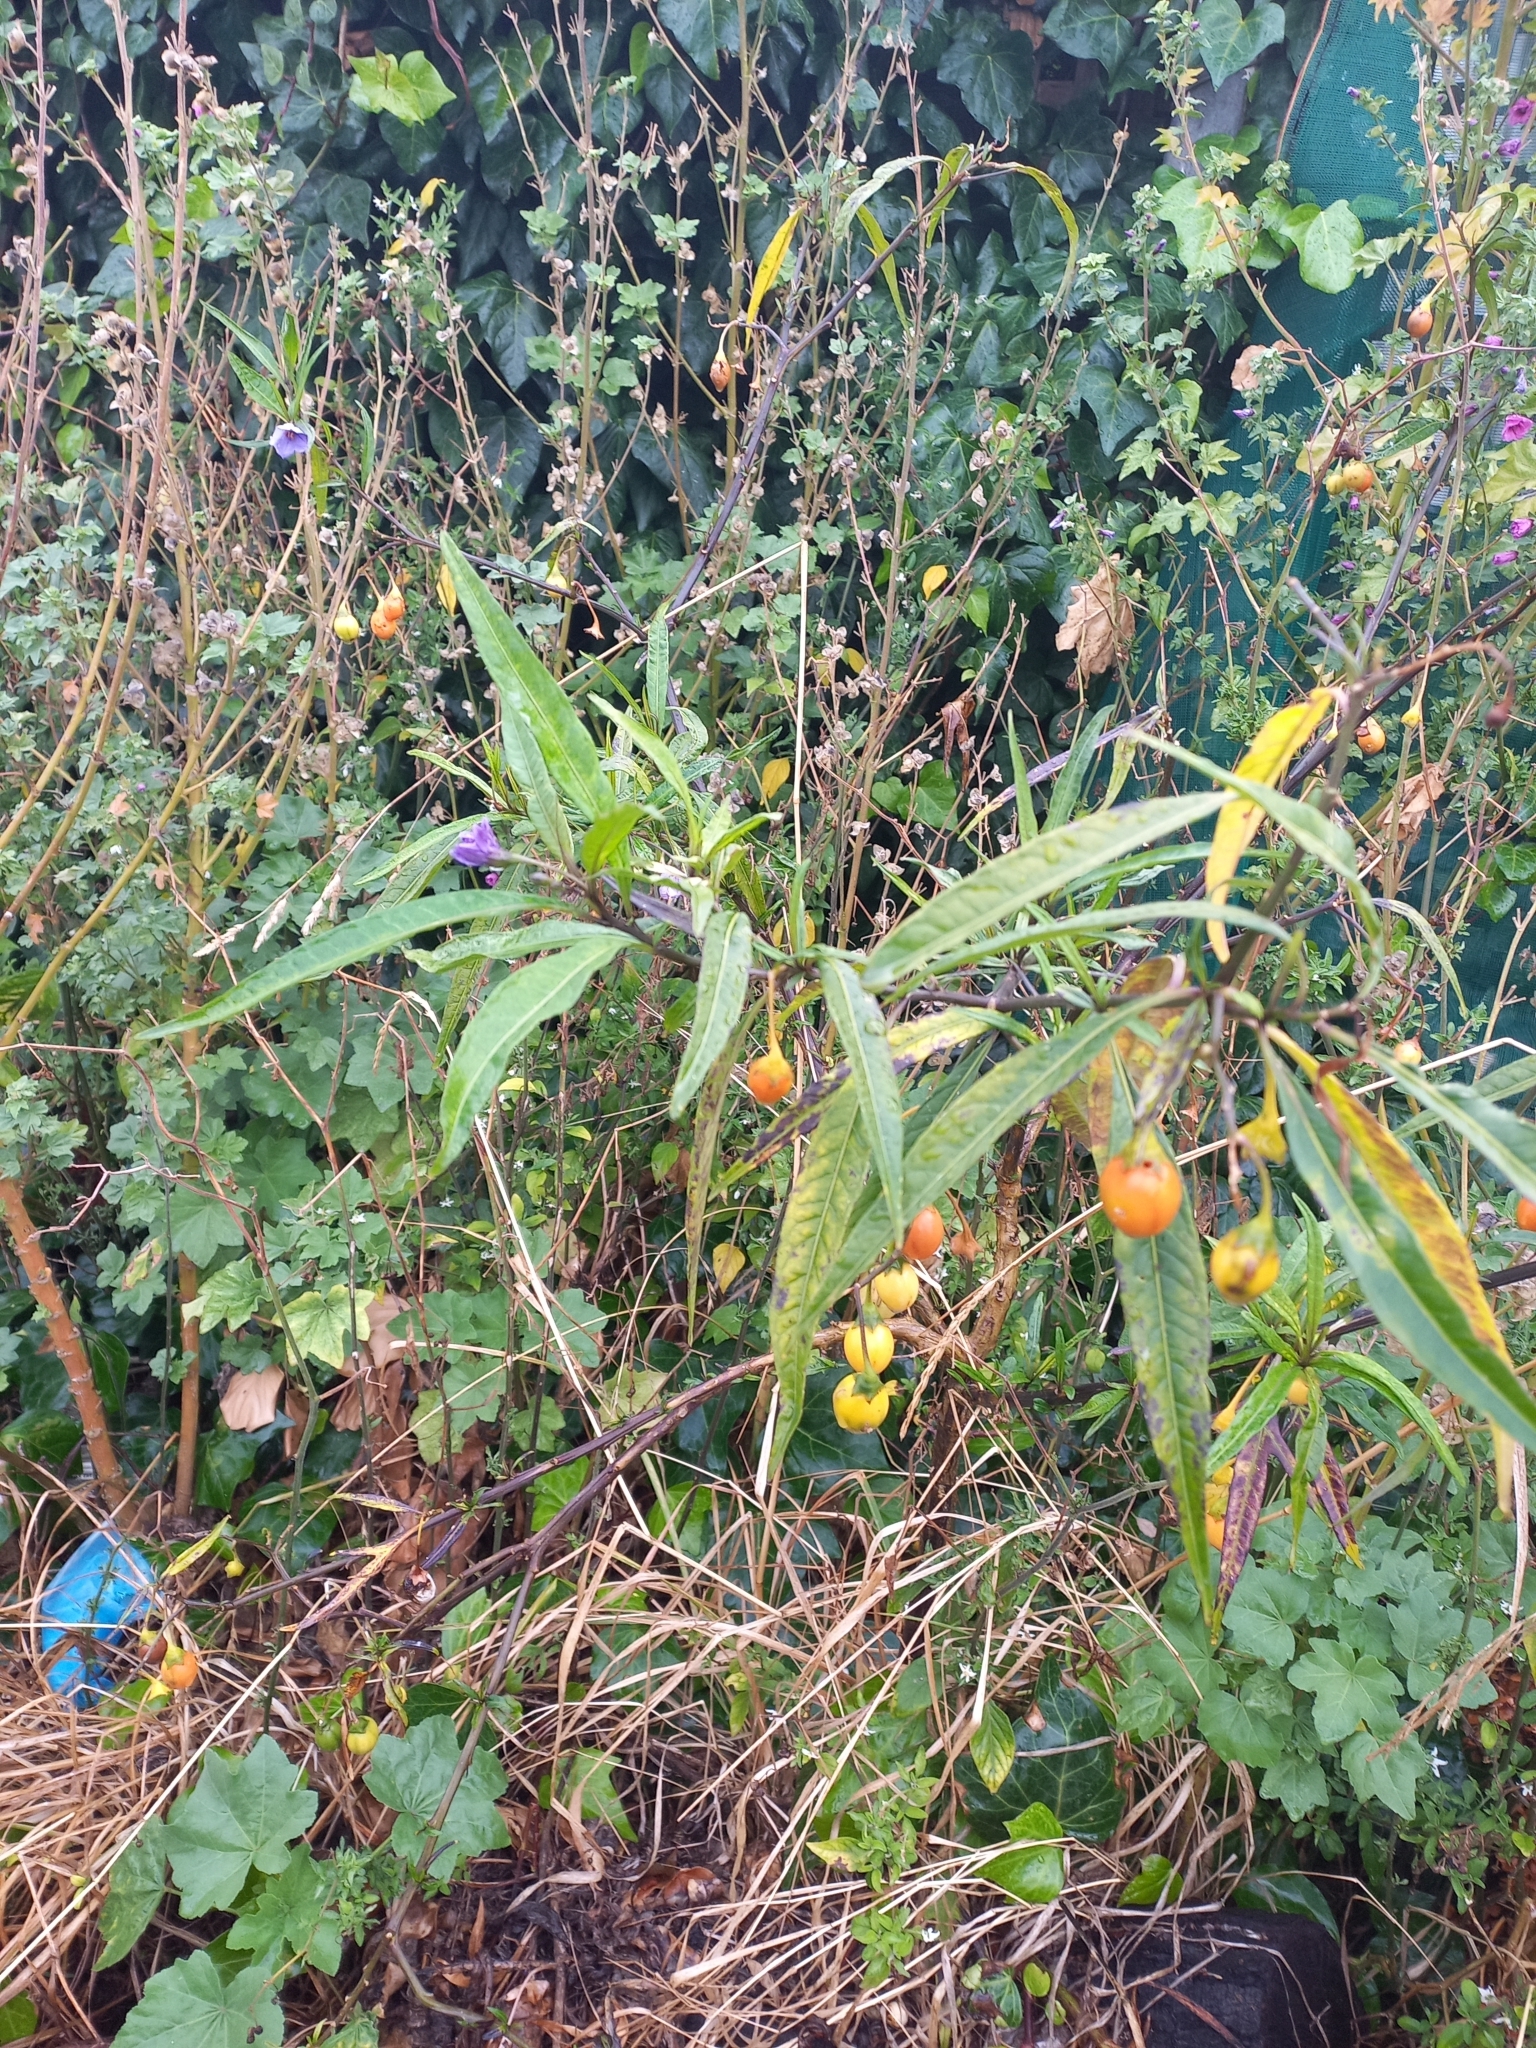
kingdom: Plantae
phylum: Tracheophyta
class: Magnoliopsida
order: Solanales
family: Solanaceae
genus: Solanum
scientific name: Solanum laciniatum
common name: Kangaroo-apple
